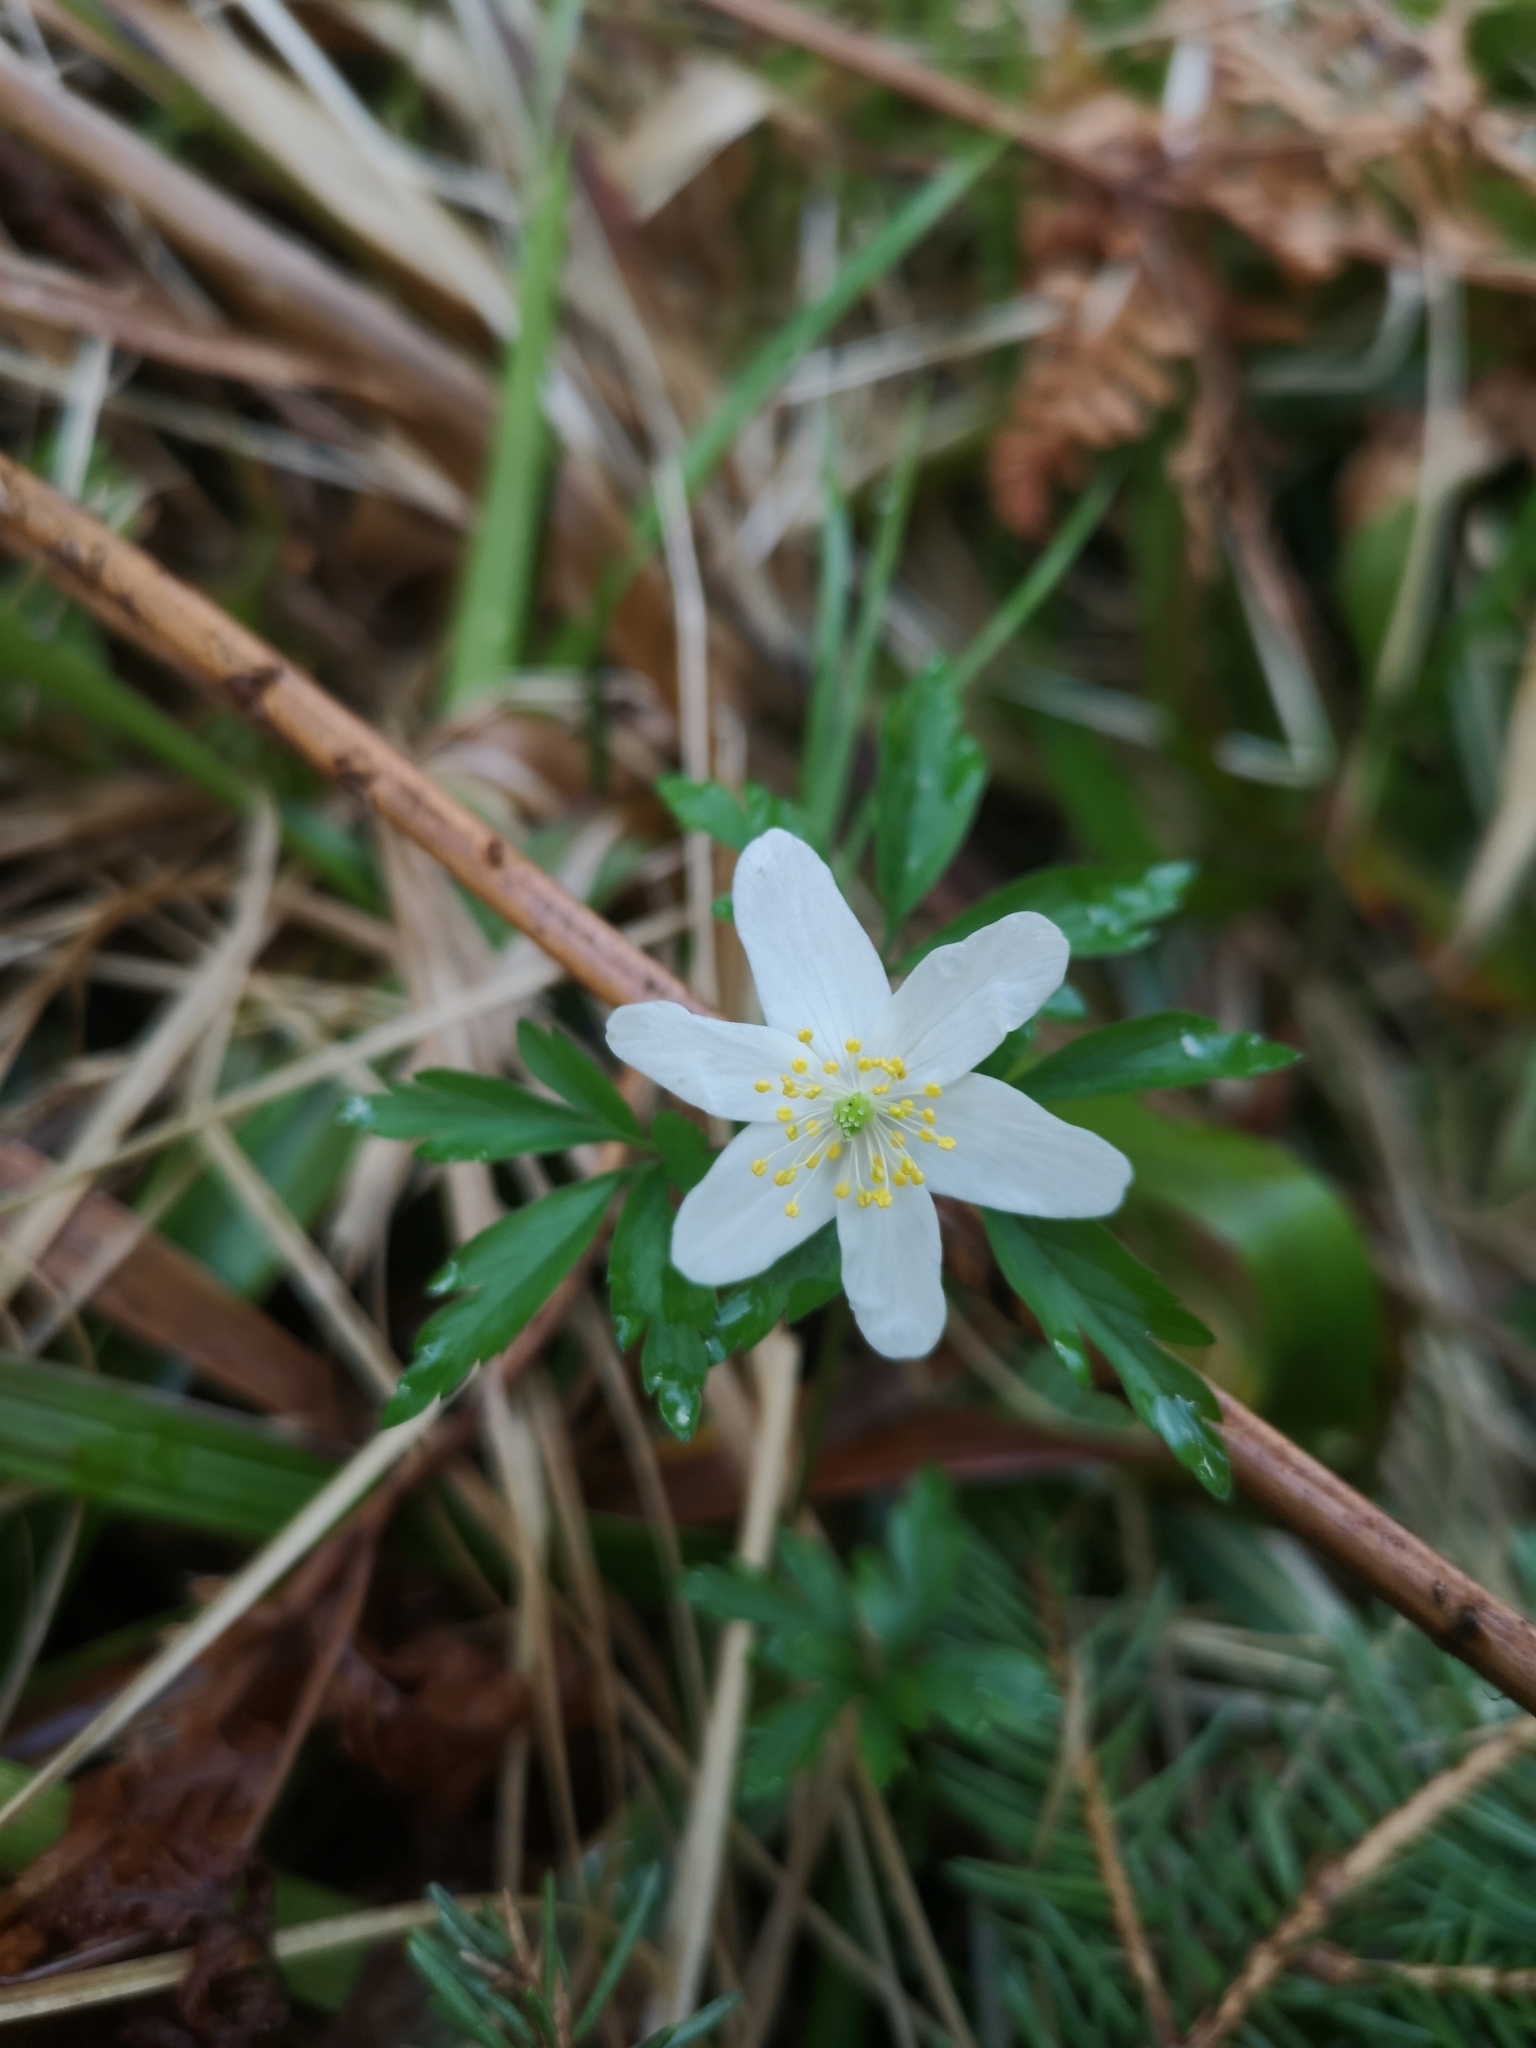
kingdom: Plantae
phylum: Tracheophyta
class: Magnoliopsida
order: Ranunculales
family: Ranunculaceae
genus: Anemone
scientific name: Anemone nemorosa
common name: Wood anemone
